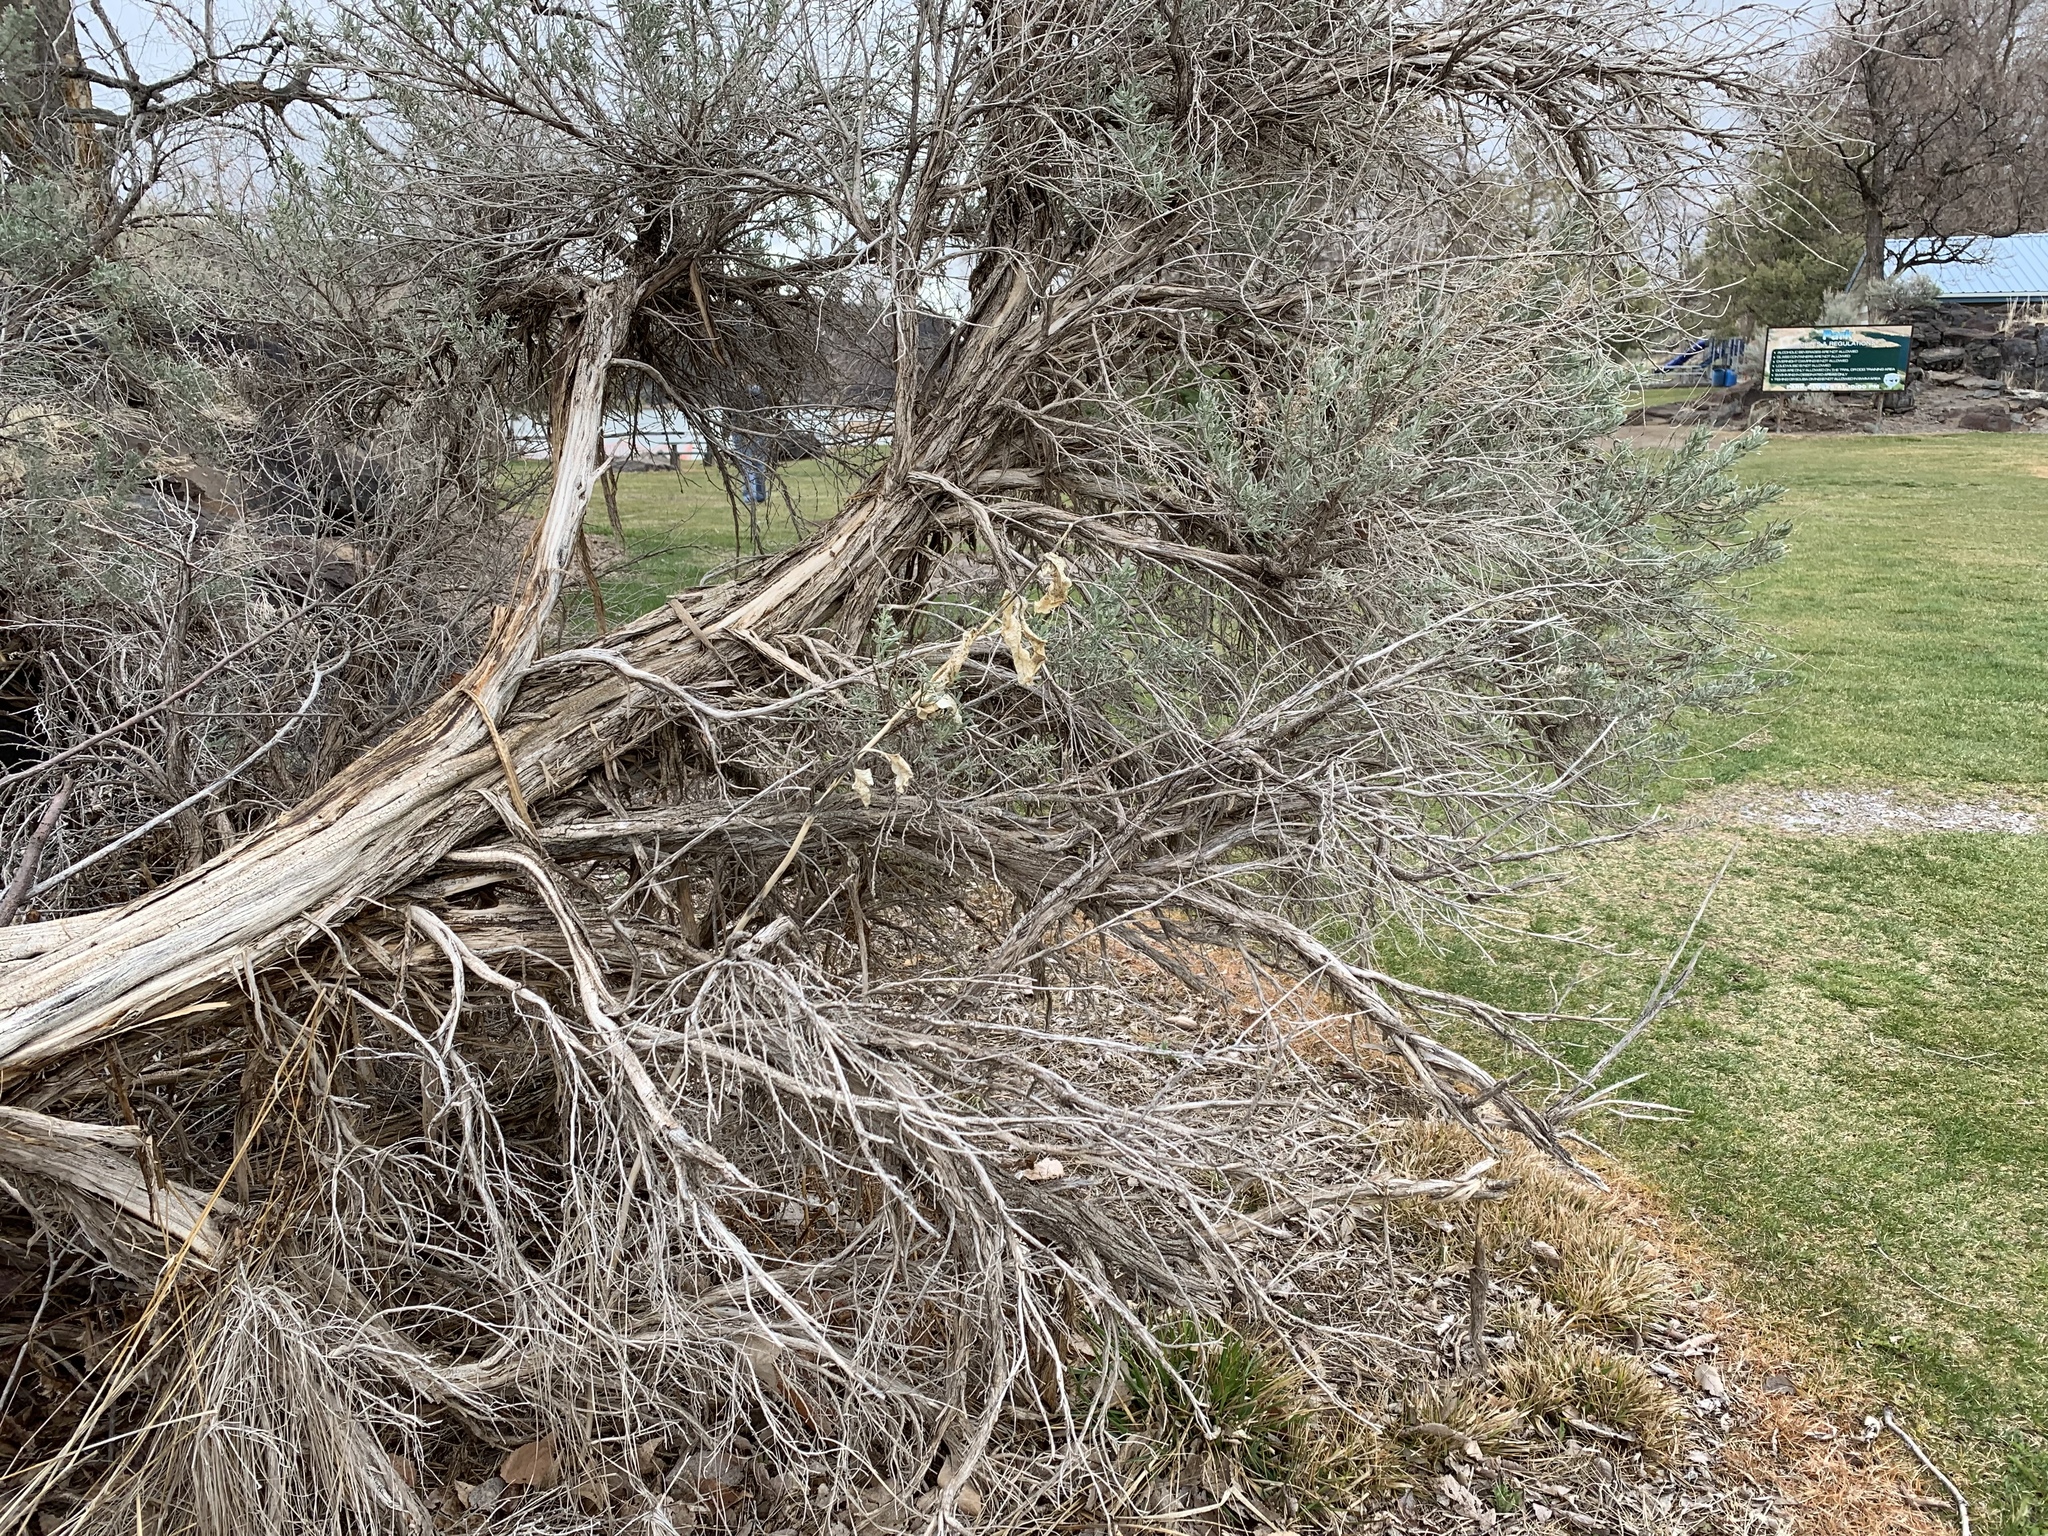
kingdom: Plantae
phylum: Tracheophyta
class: Magnoliopsida
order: Gentianales
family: Apocynaceae
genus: Asclepias
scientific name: Asclepias speciosa
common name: Showy milkweed
